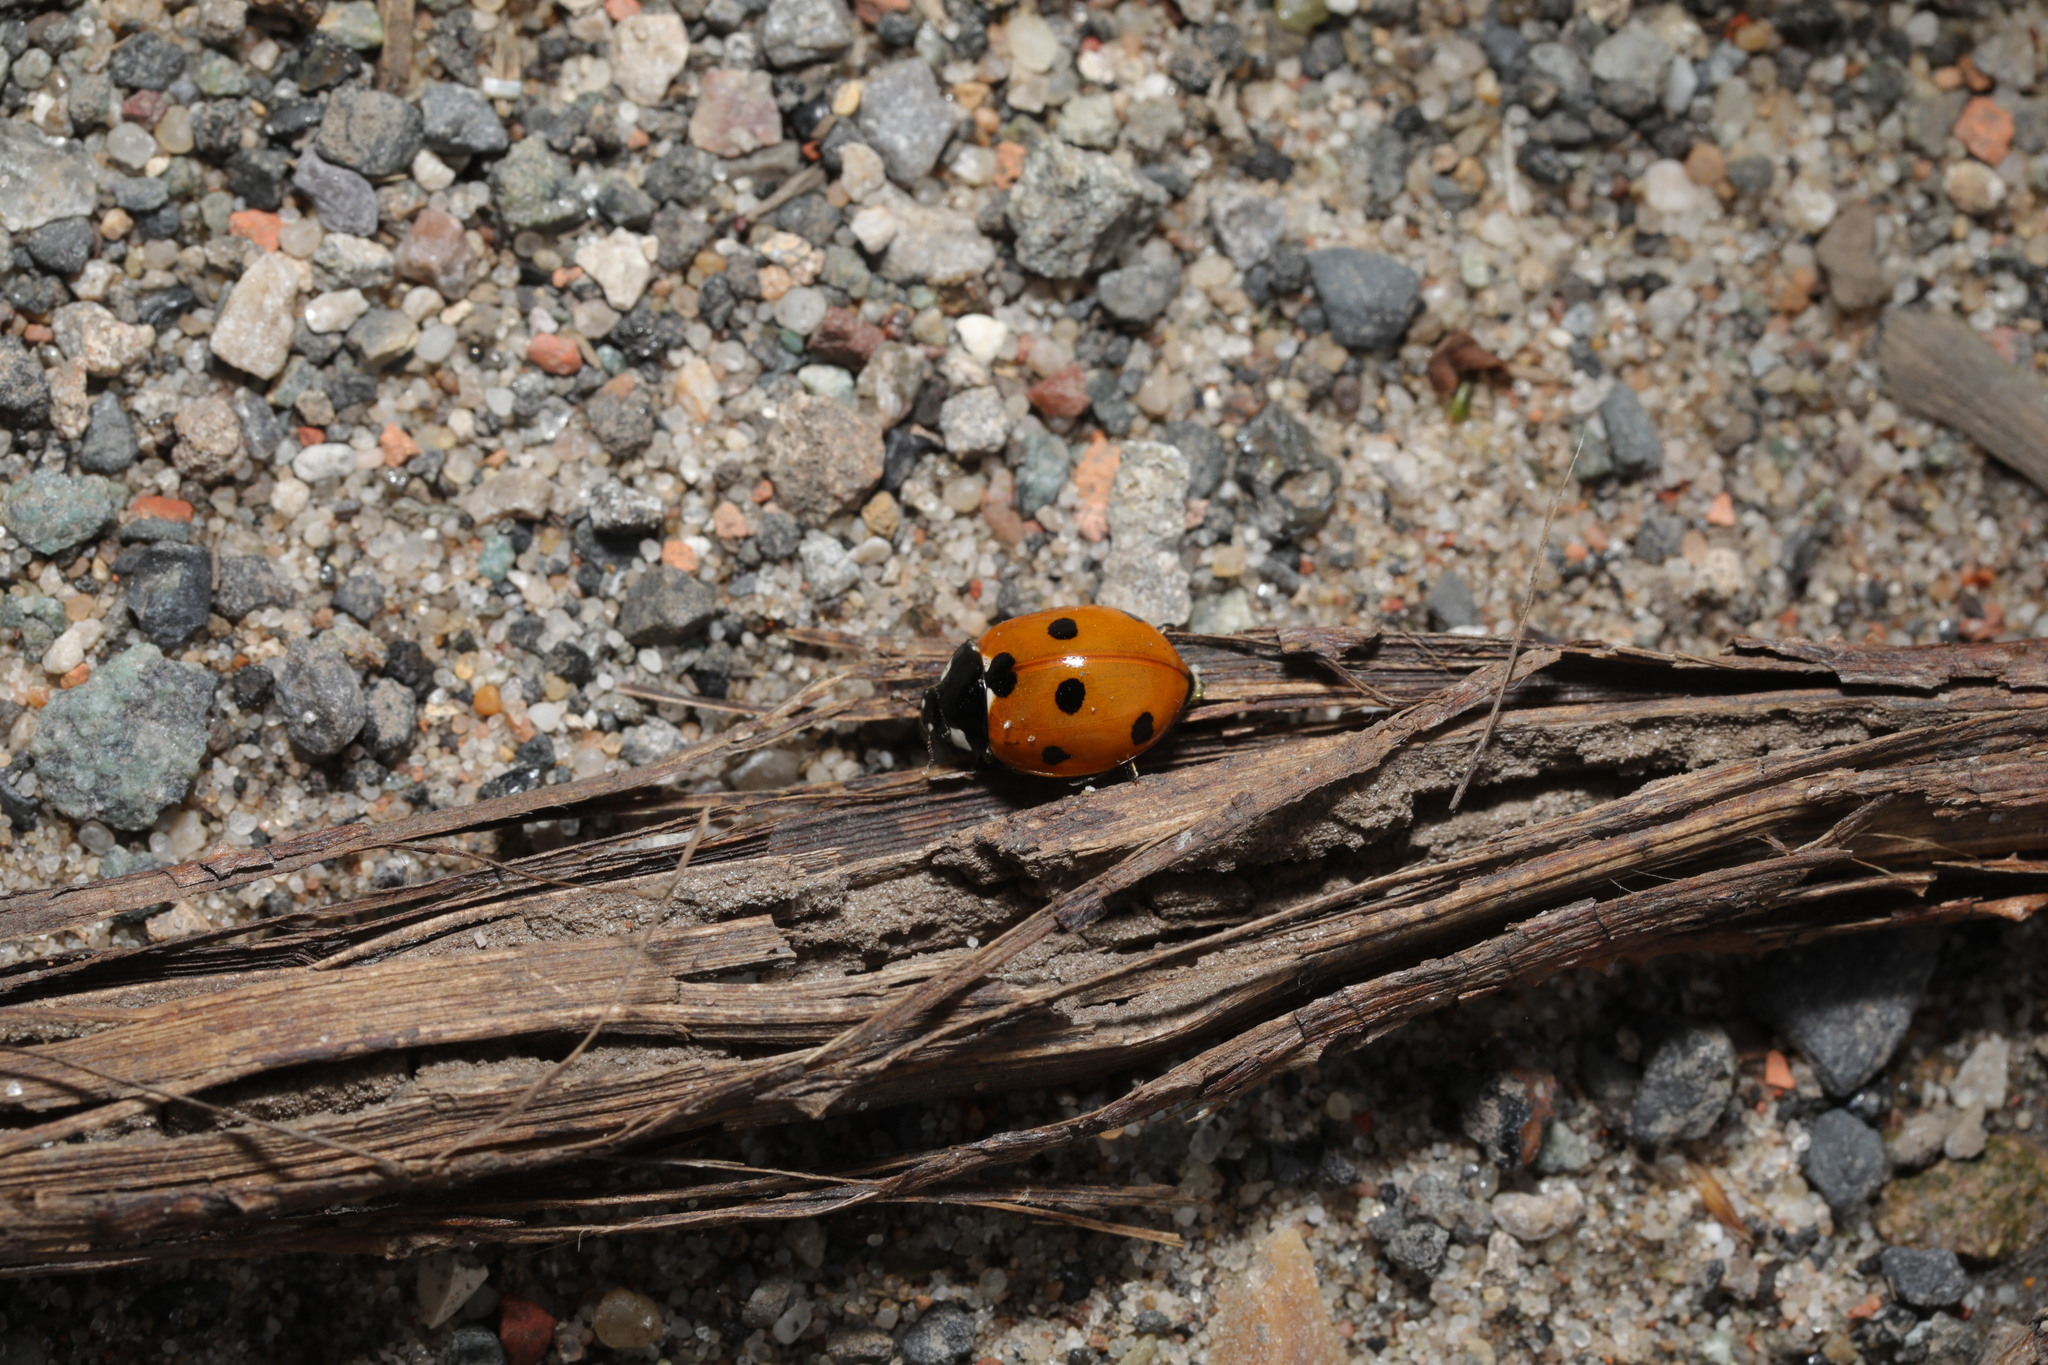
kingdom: Animalia
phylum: Arthropoda
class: Insecta
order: Coleoptera
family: Coccinellidae
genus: Coccinella
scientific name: Coccinella septempunctata
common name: Sevenspotted lady beetle
